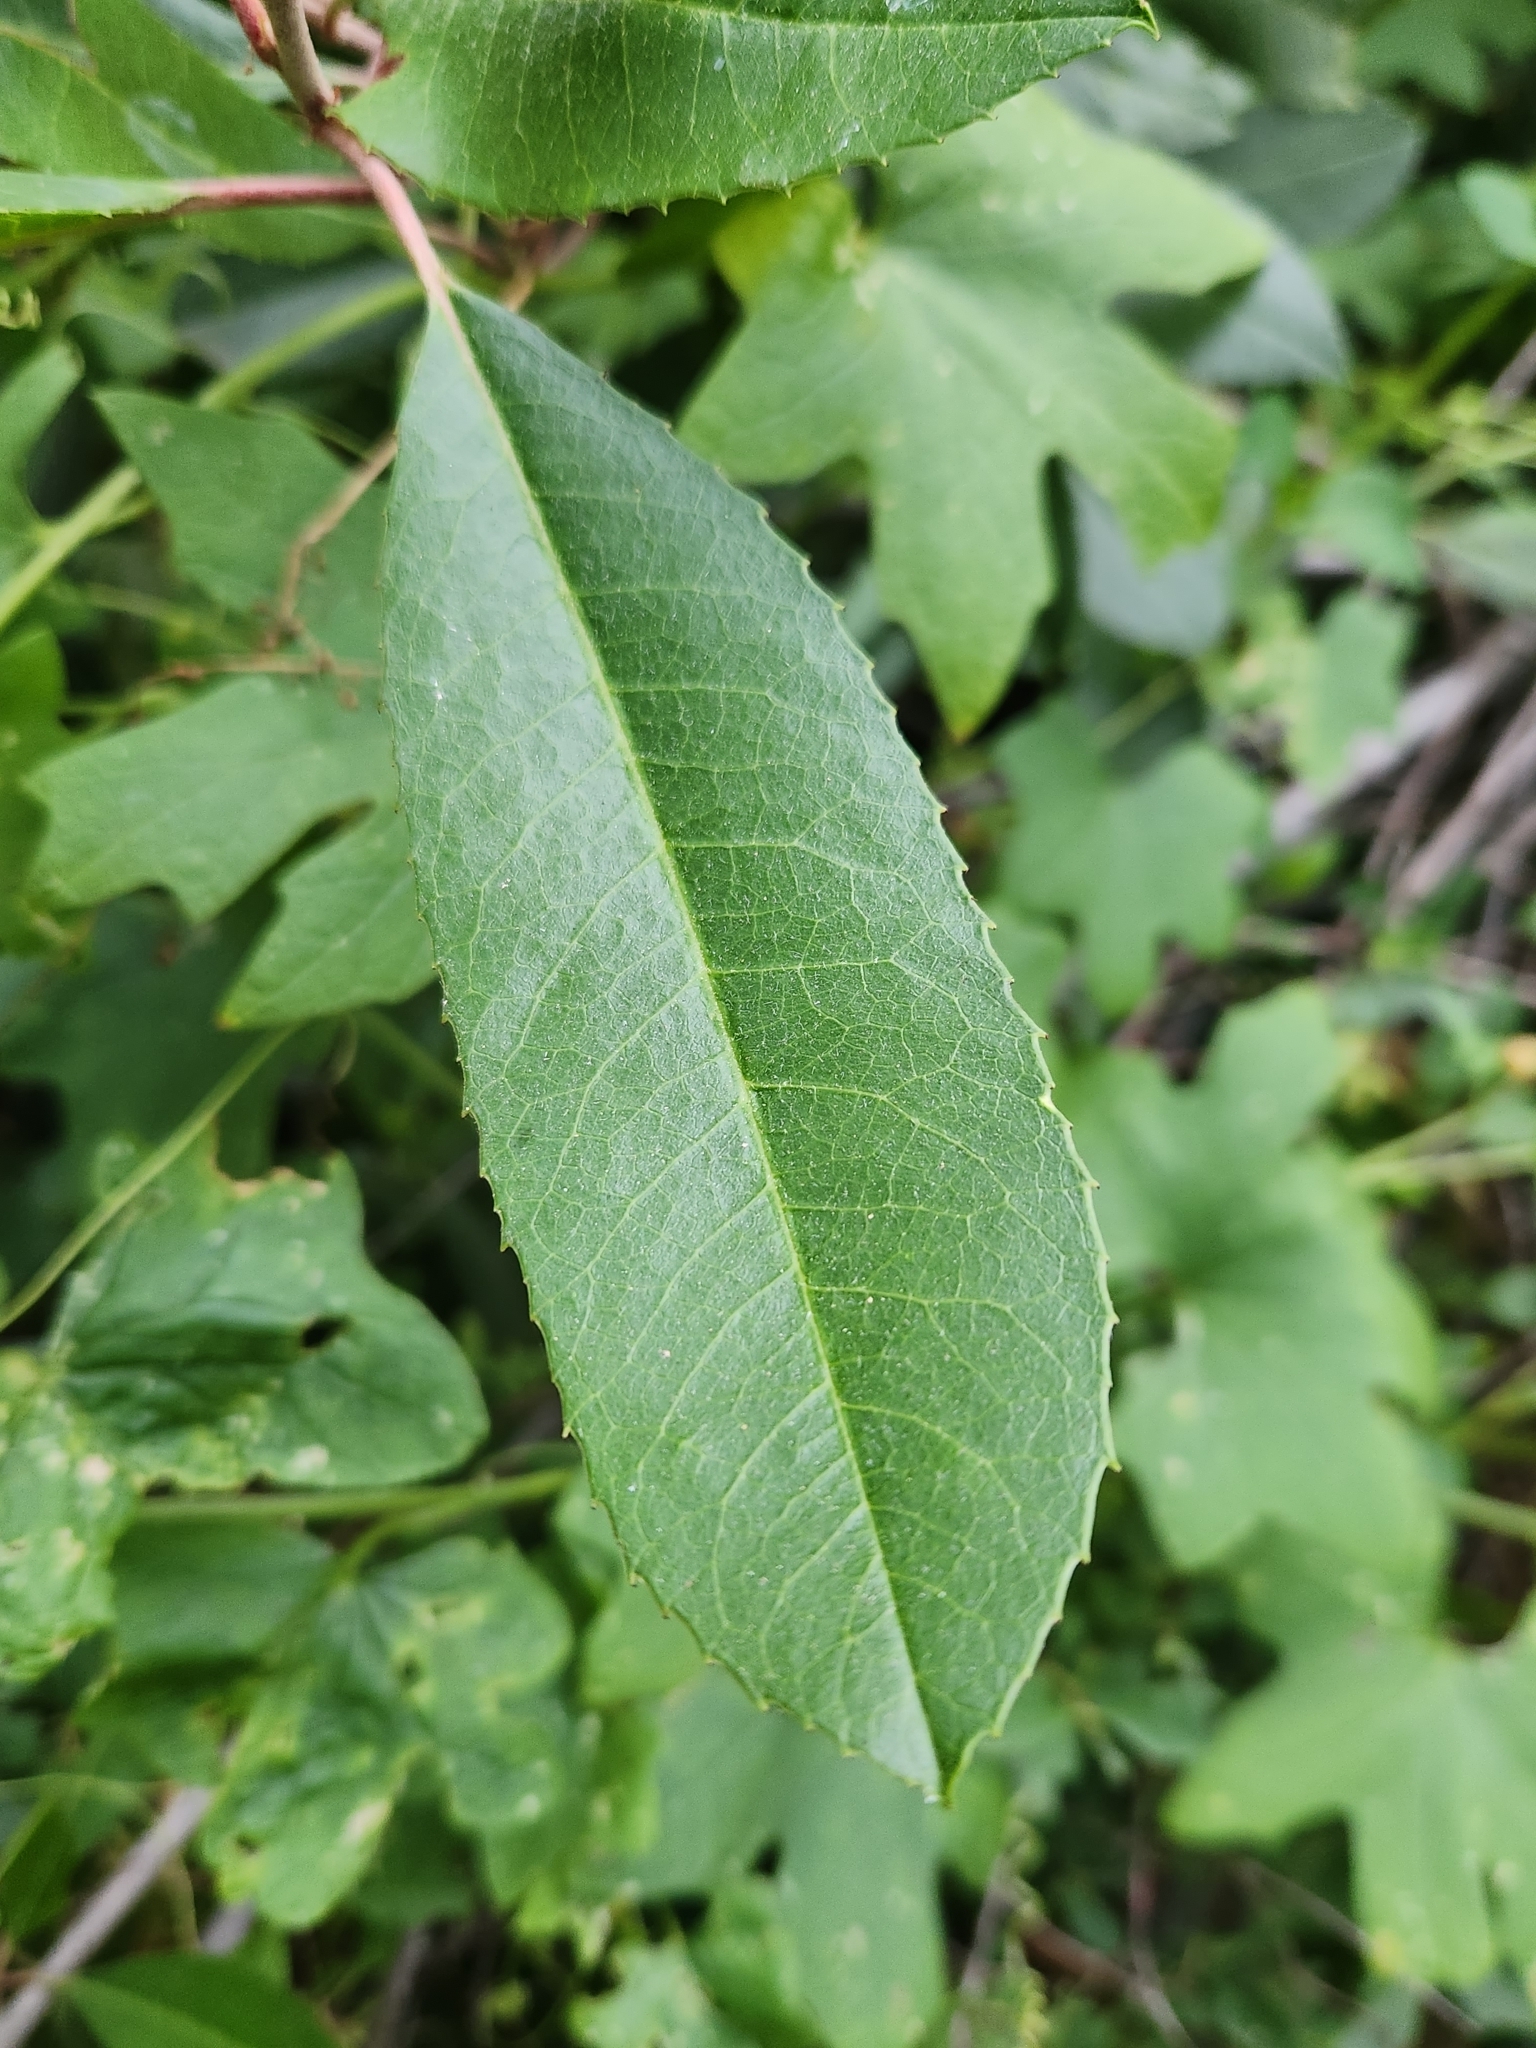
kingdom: Plantae
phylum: Tracheophyta
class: Magnoliopsida
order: Rosales
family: Rosaceae
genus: Heteromeles
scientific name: Heteromeles arbutifolia
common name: California-holly
